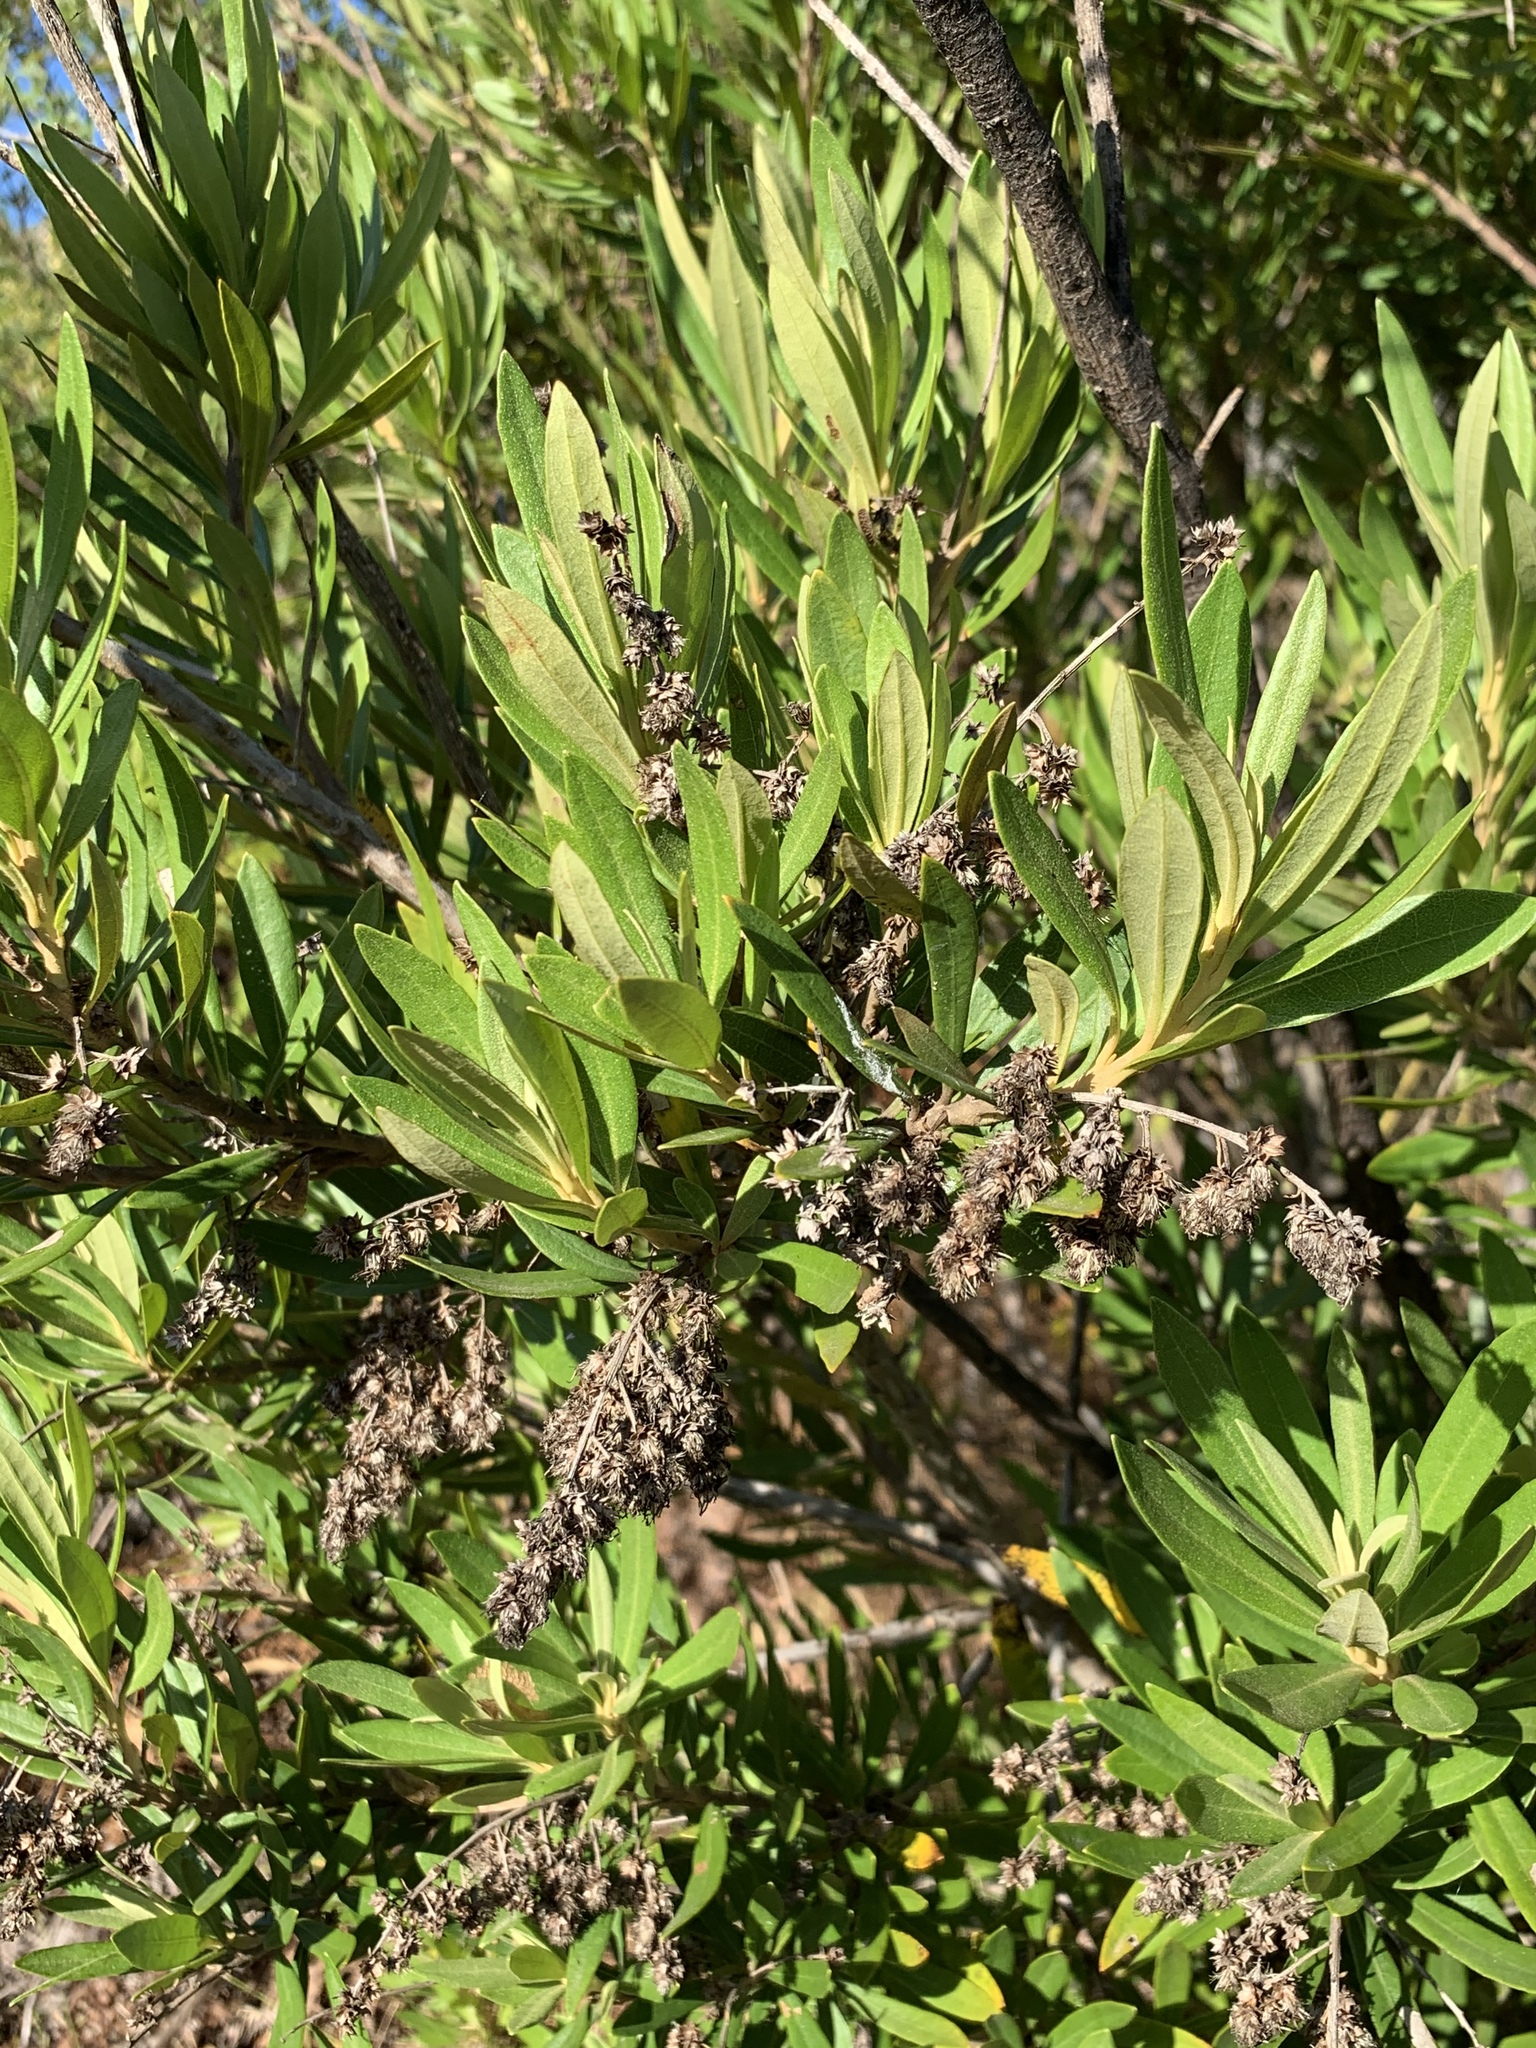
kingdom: Plantae
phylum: Tracheophyta
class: Magnoliopsida
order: Asterales
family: Asteraceae
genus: Brachylaena
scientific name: Brachylaena neriifolia
